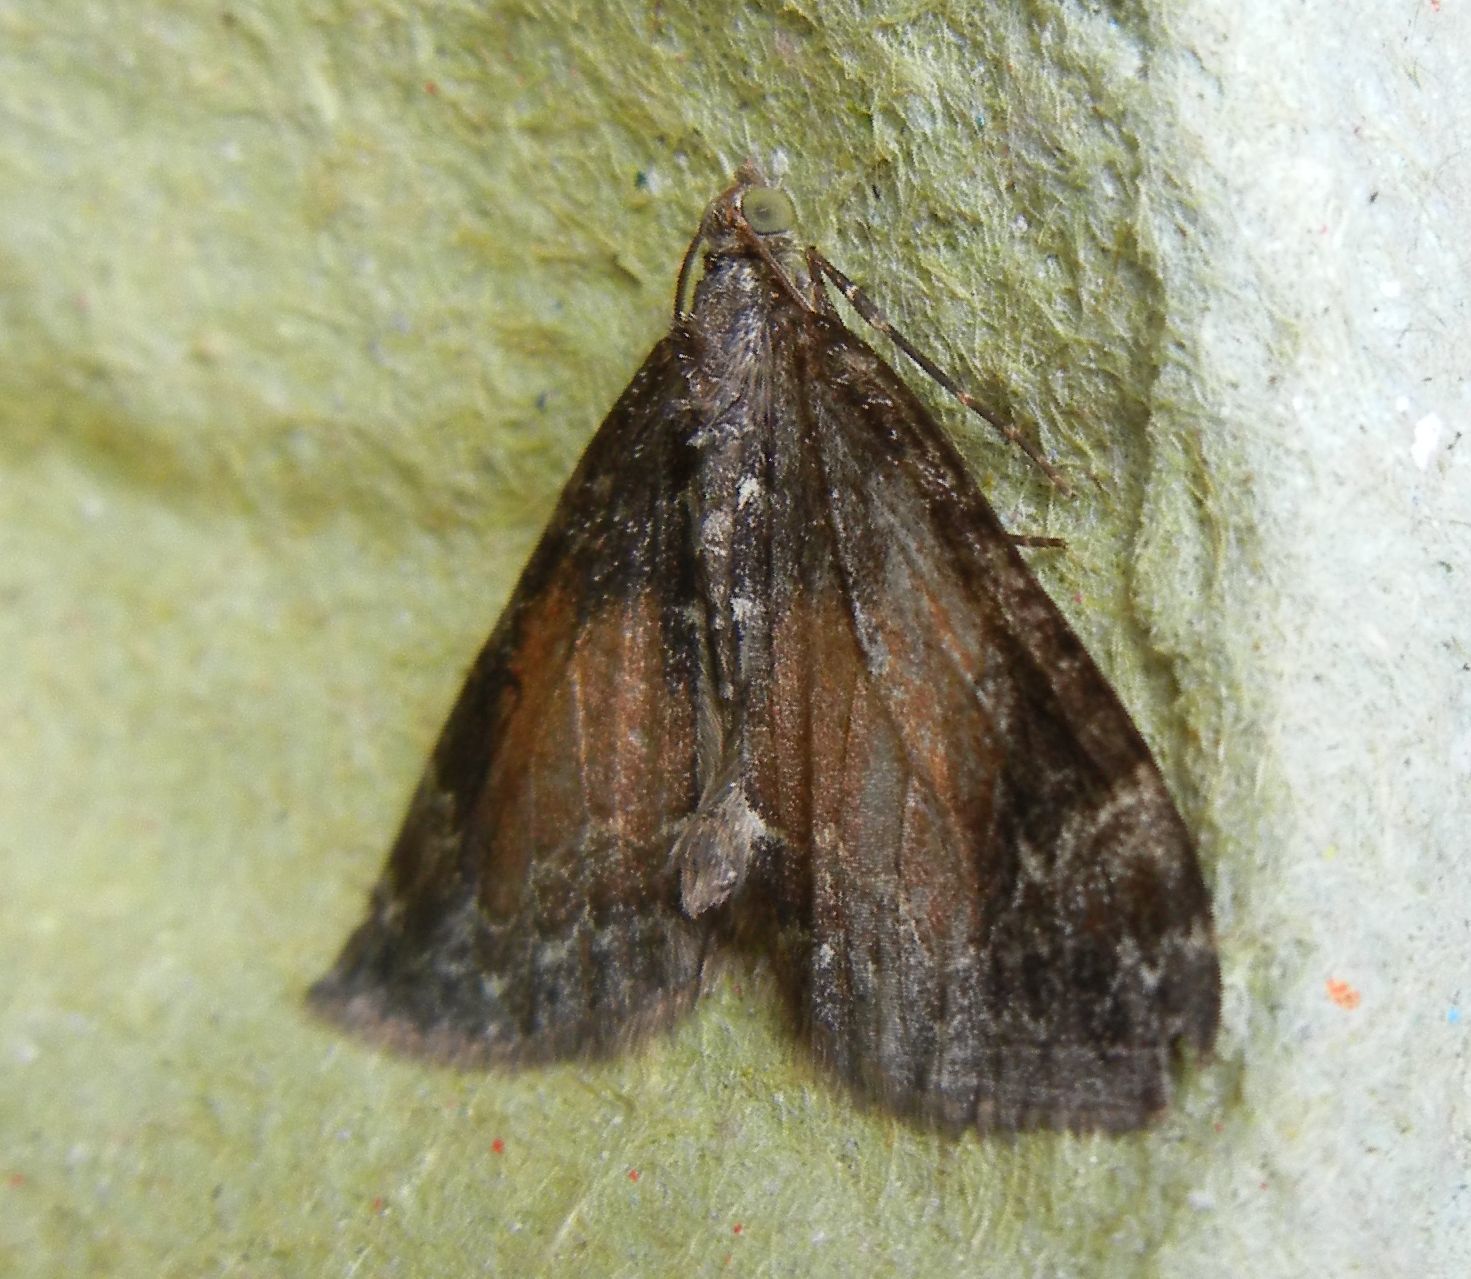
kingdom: Animalia
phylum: Arthropoda
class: Insecta
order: Lepidoptera
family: Geometridae
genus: Dysstroma
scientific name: Dysstroma truncata
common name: Common marbled carpet
